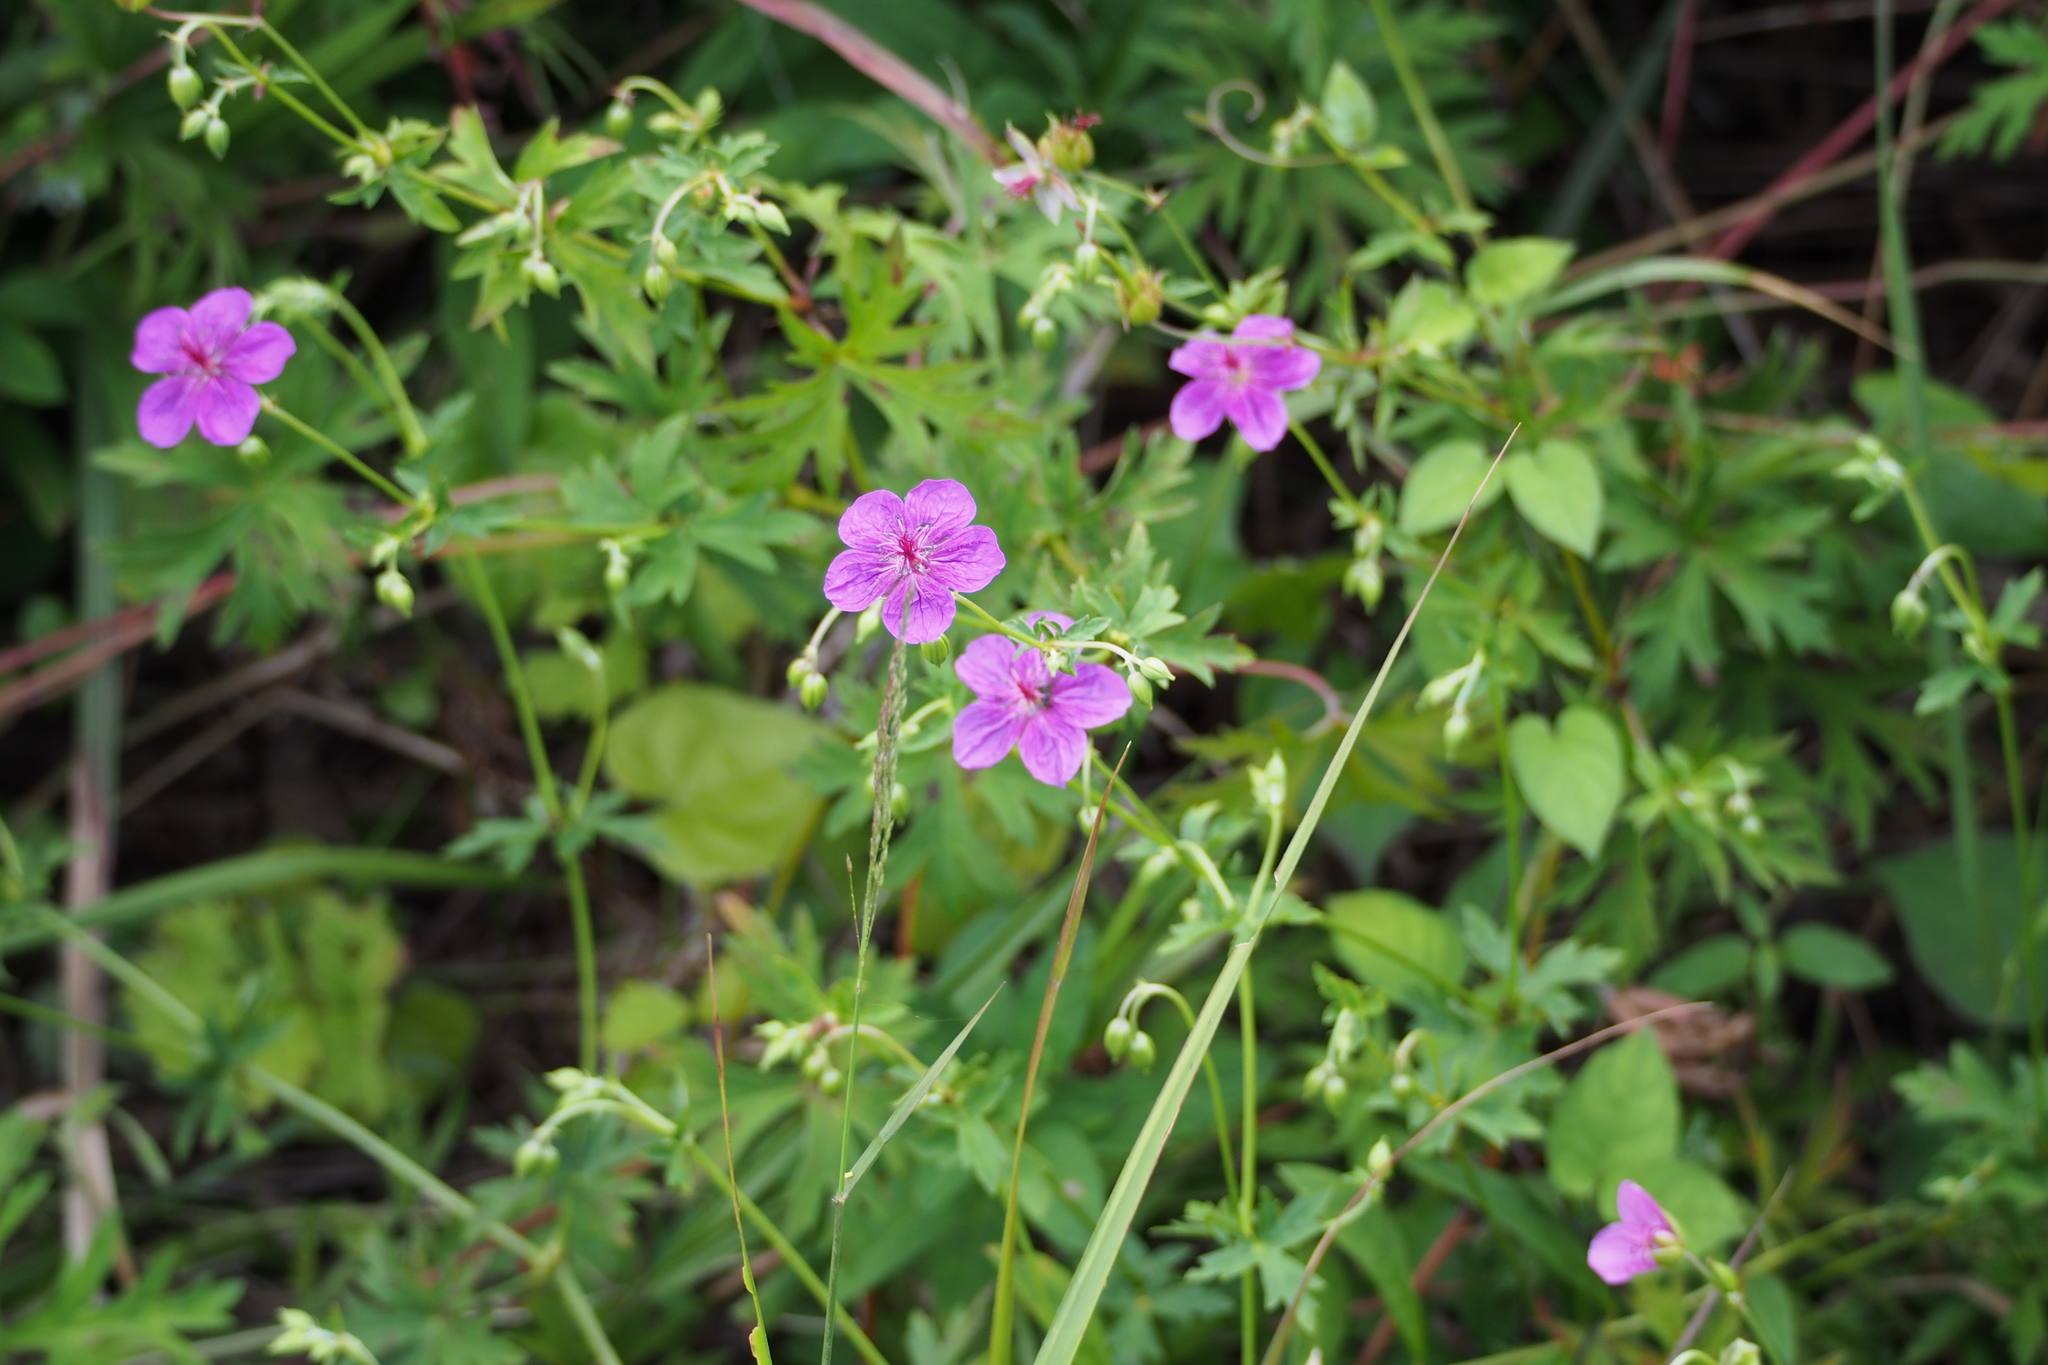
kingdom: Plantae
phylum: Tracheophyta
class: Magnoliopsida
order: Geraniales
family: Geraniaceae
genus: Geranium
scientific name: Geranium soboliferum
